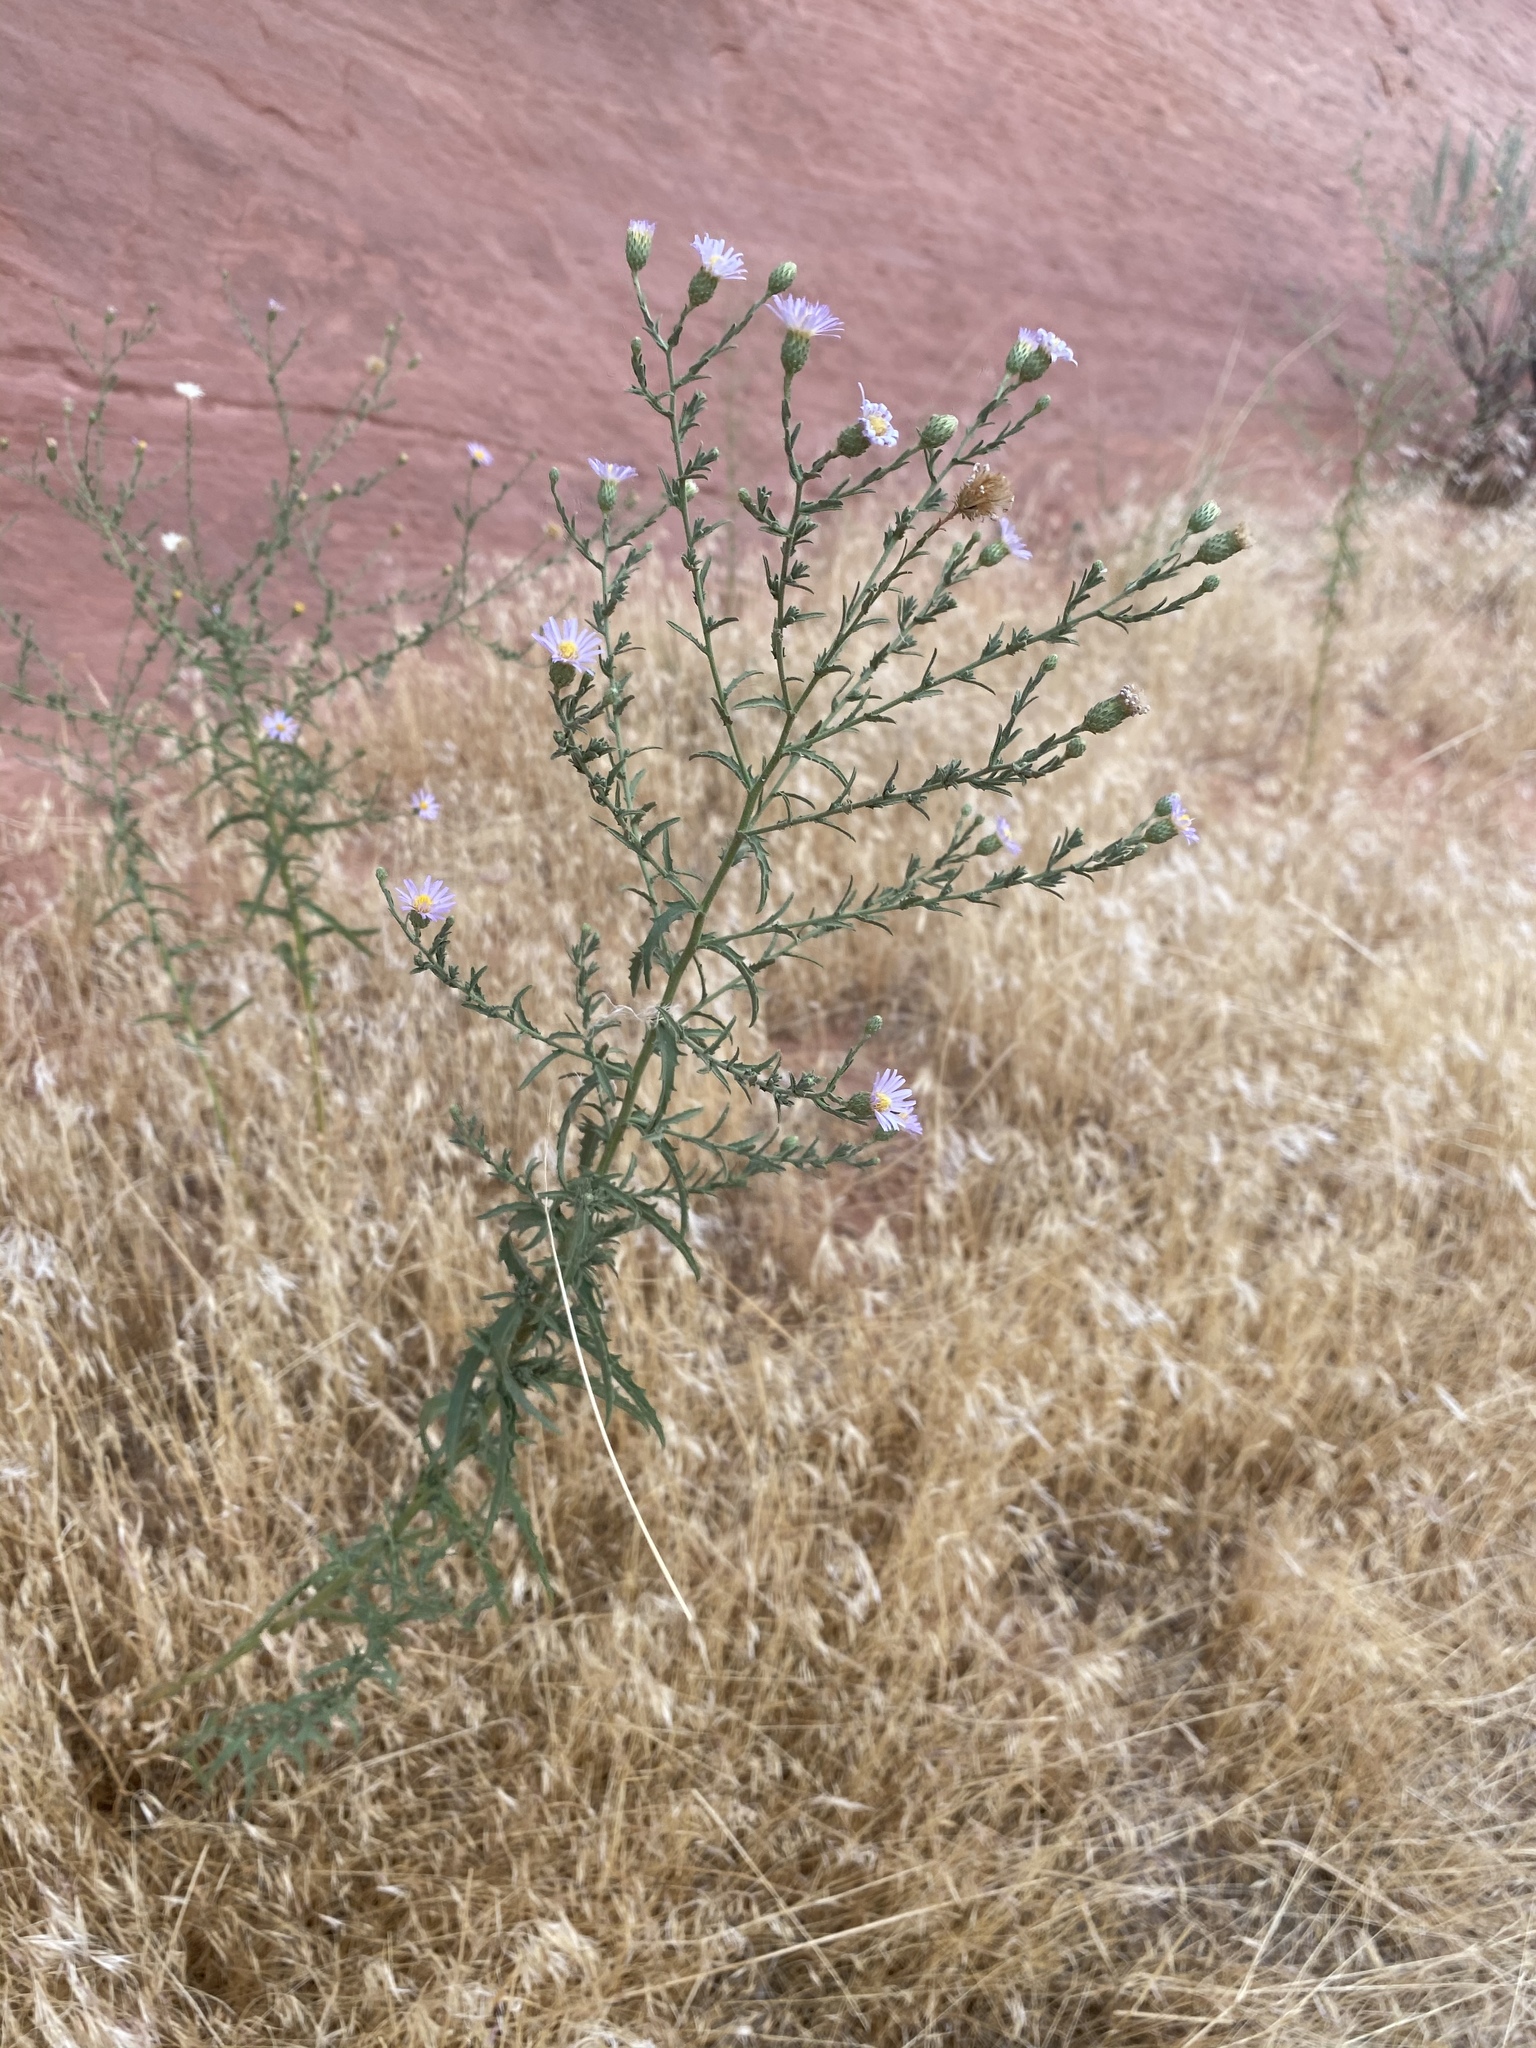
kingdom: Plantae
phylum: Tracheophyta
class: Magnoliopsida
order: Asterales
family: Asteraceae
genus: Dieteria
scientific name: Dieteria canescens
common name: Hoary-aster
